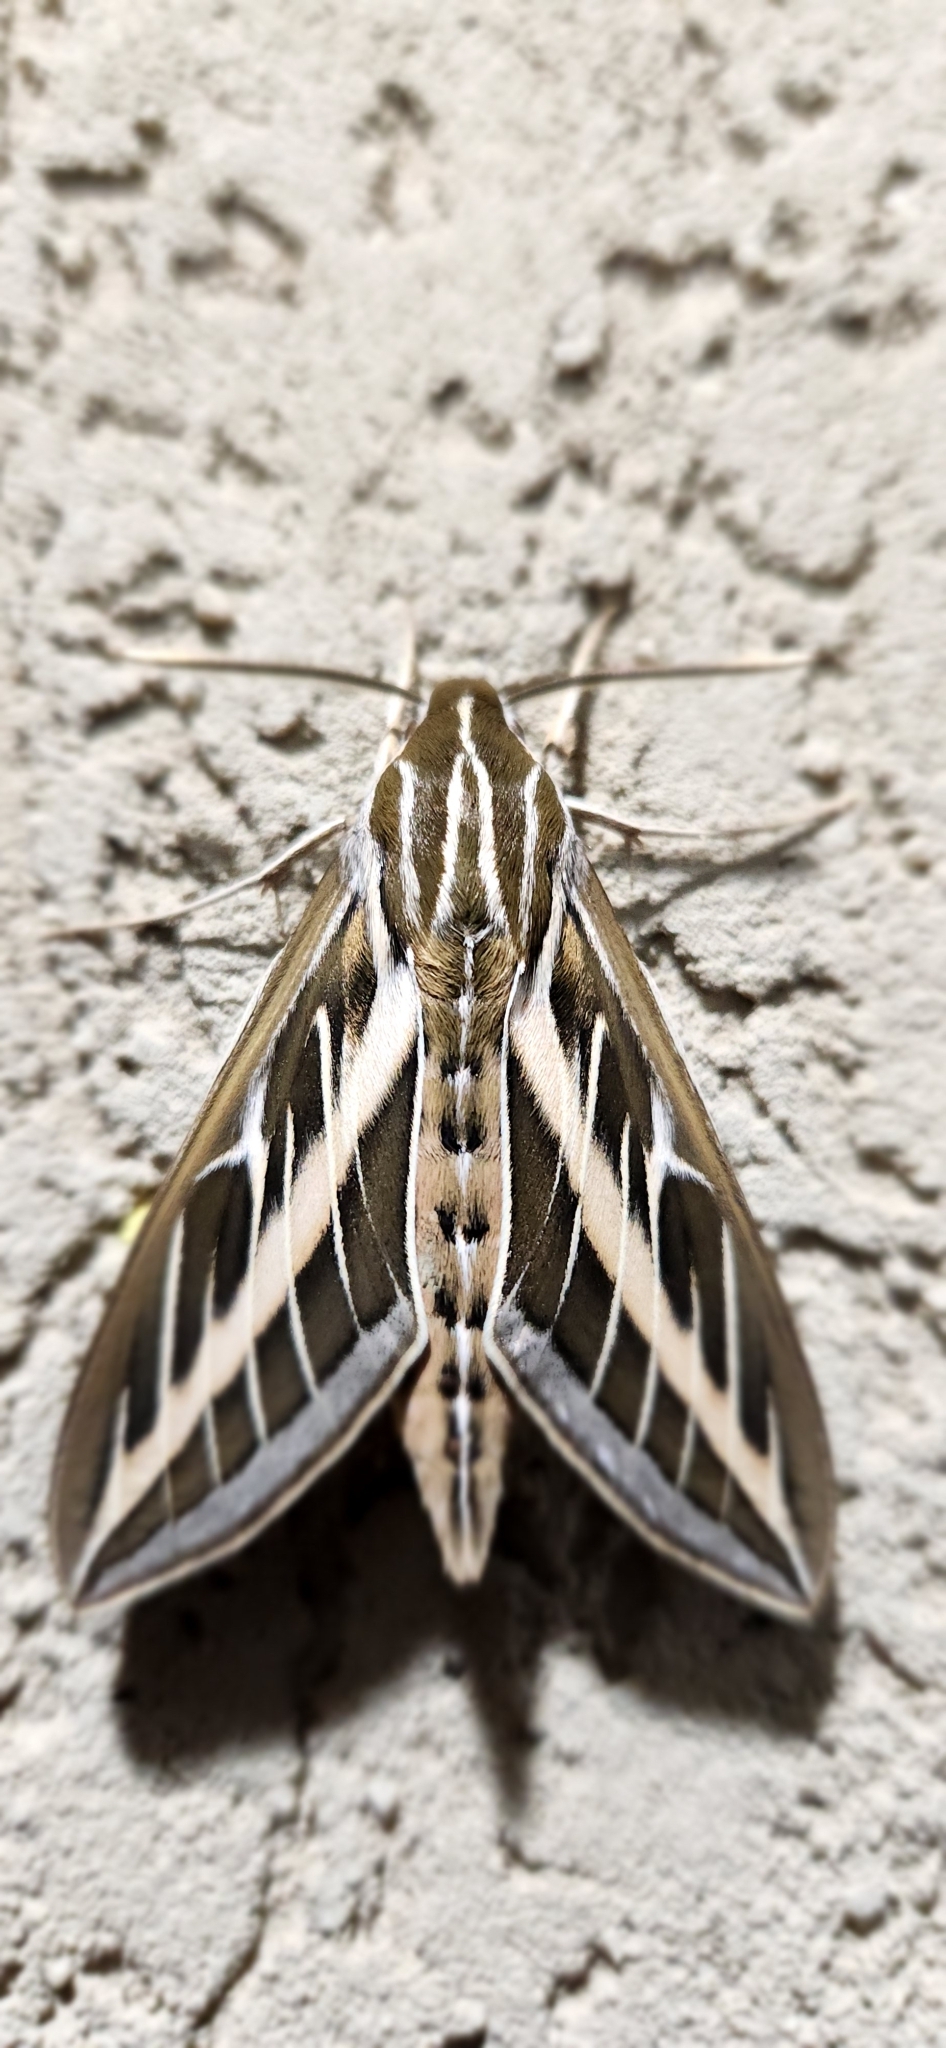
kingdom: Animalia
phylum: Arthropoda
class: Insecta
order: Lepidoptera
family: Sphingidae
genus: Hyles
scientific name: Hyles lineata
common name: White-lined sphinx
